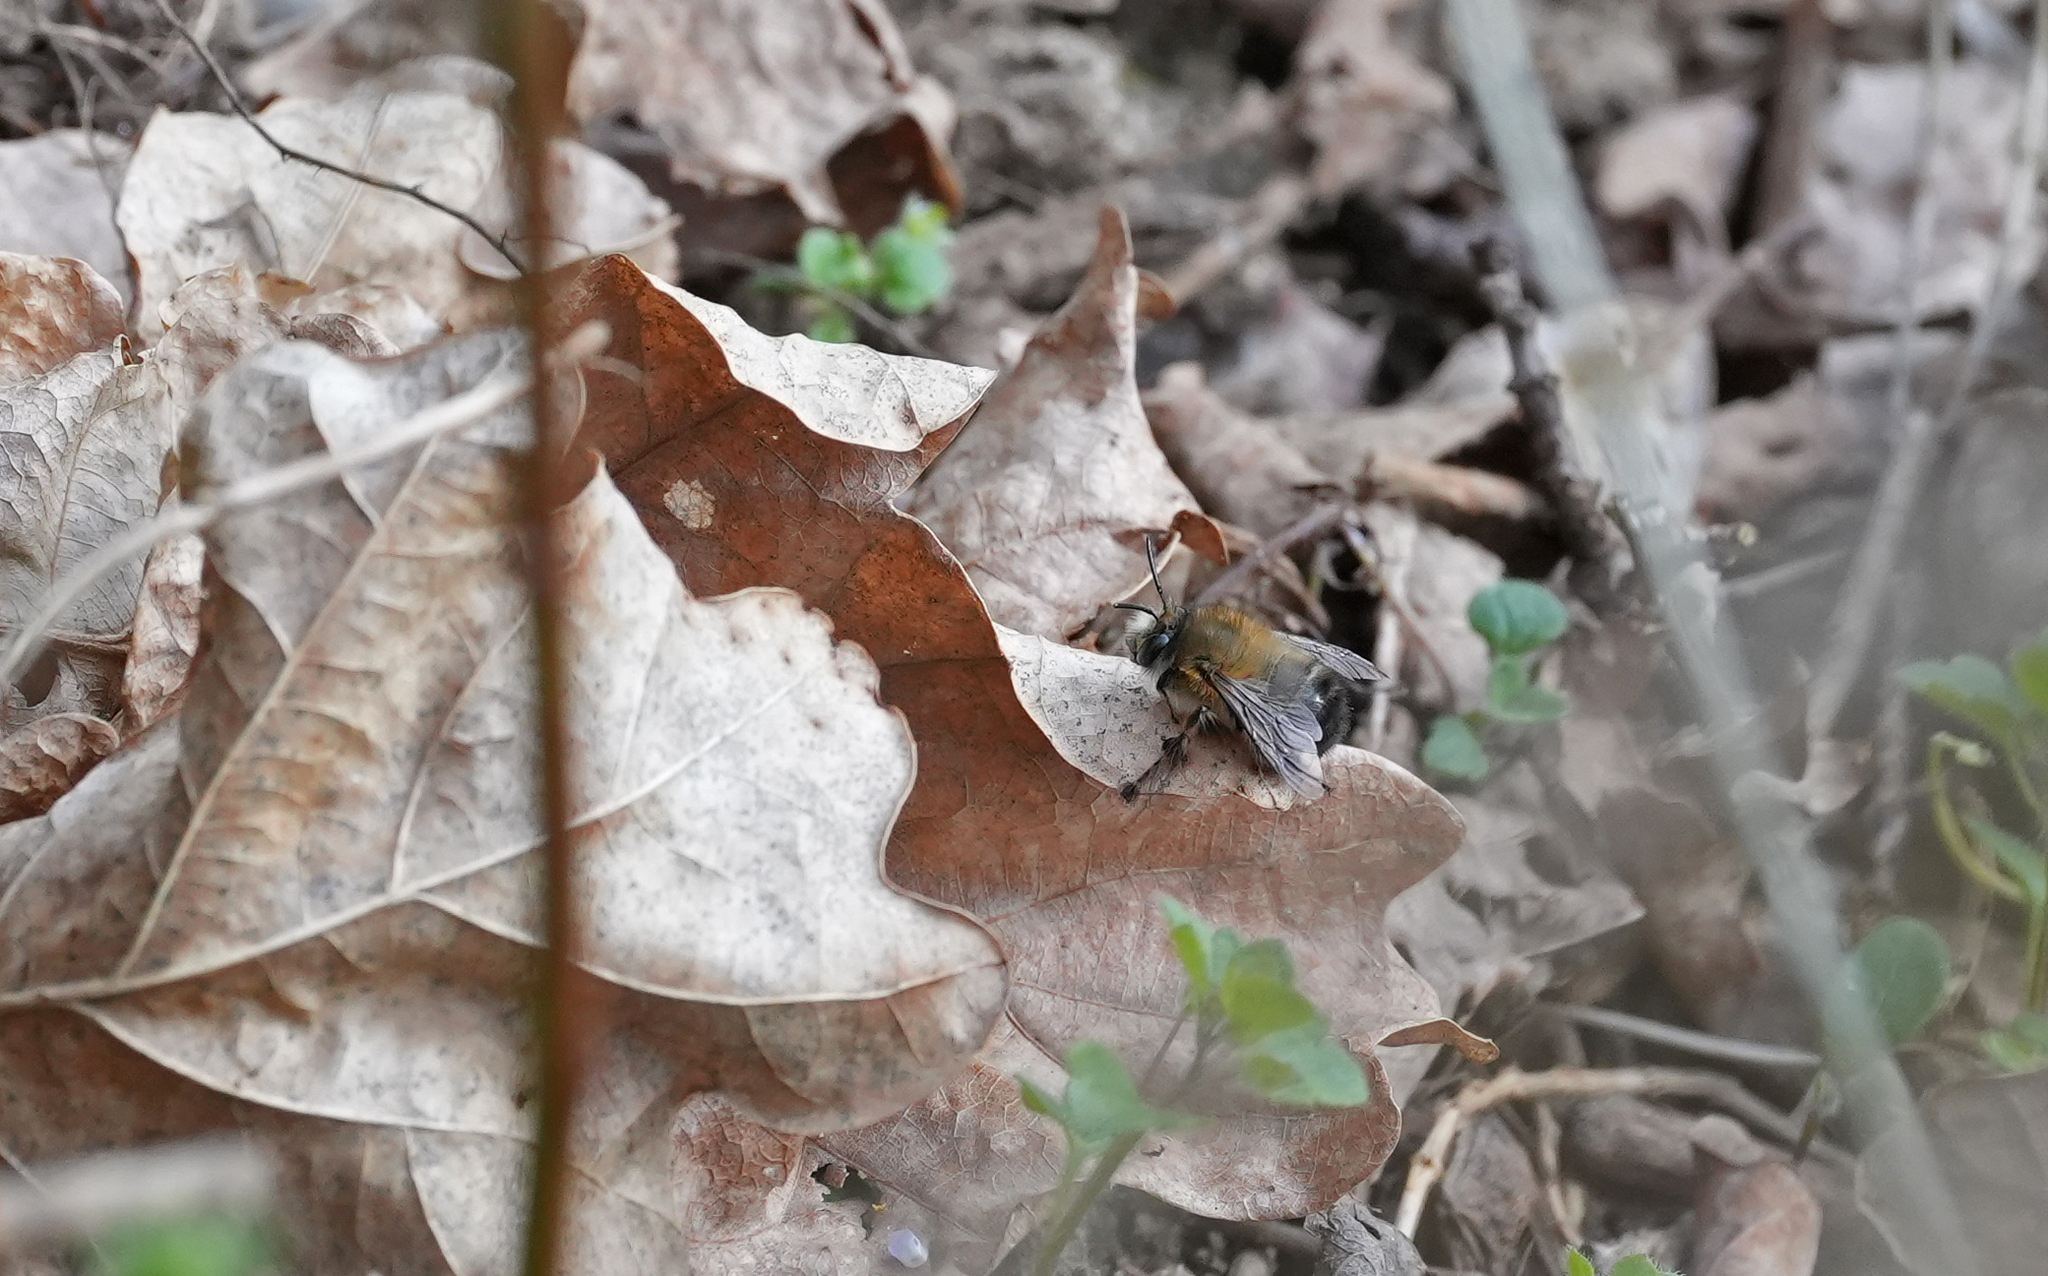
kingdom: Animalia
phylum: Arthropoda
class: Insecta
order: Hymenoptera
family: Apidae
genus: Anthophora
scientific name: Anthophora plumipes
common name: Hairy-footed flower bee
